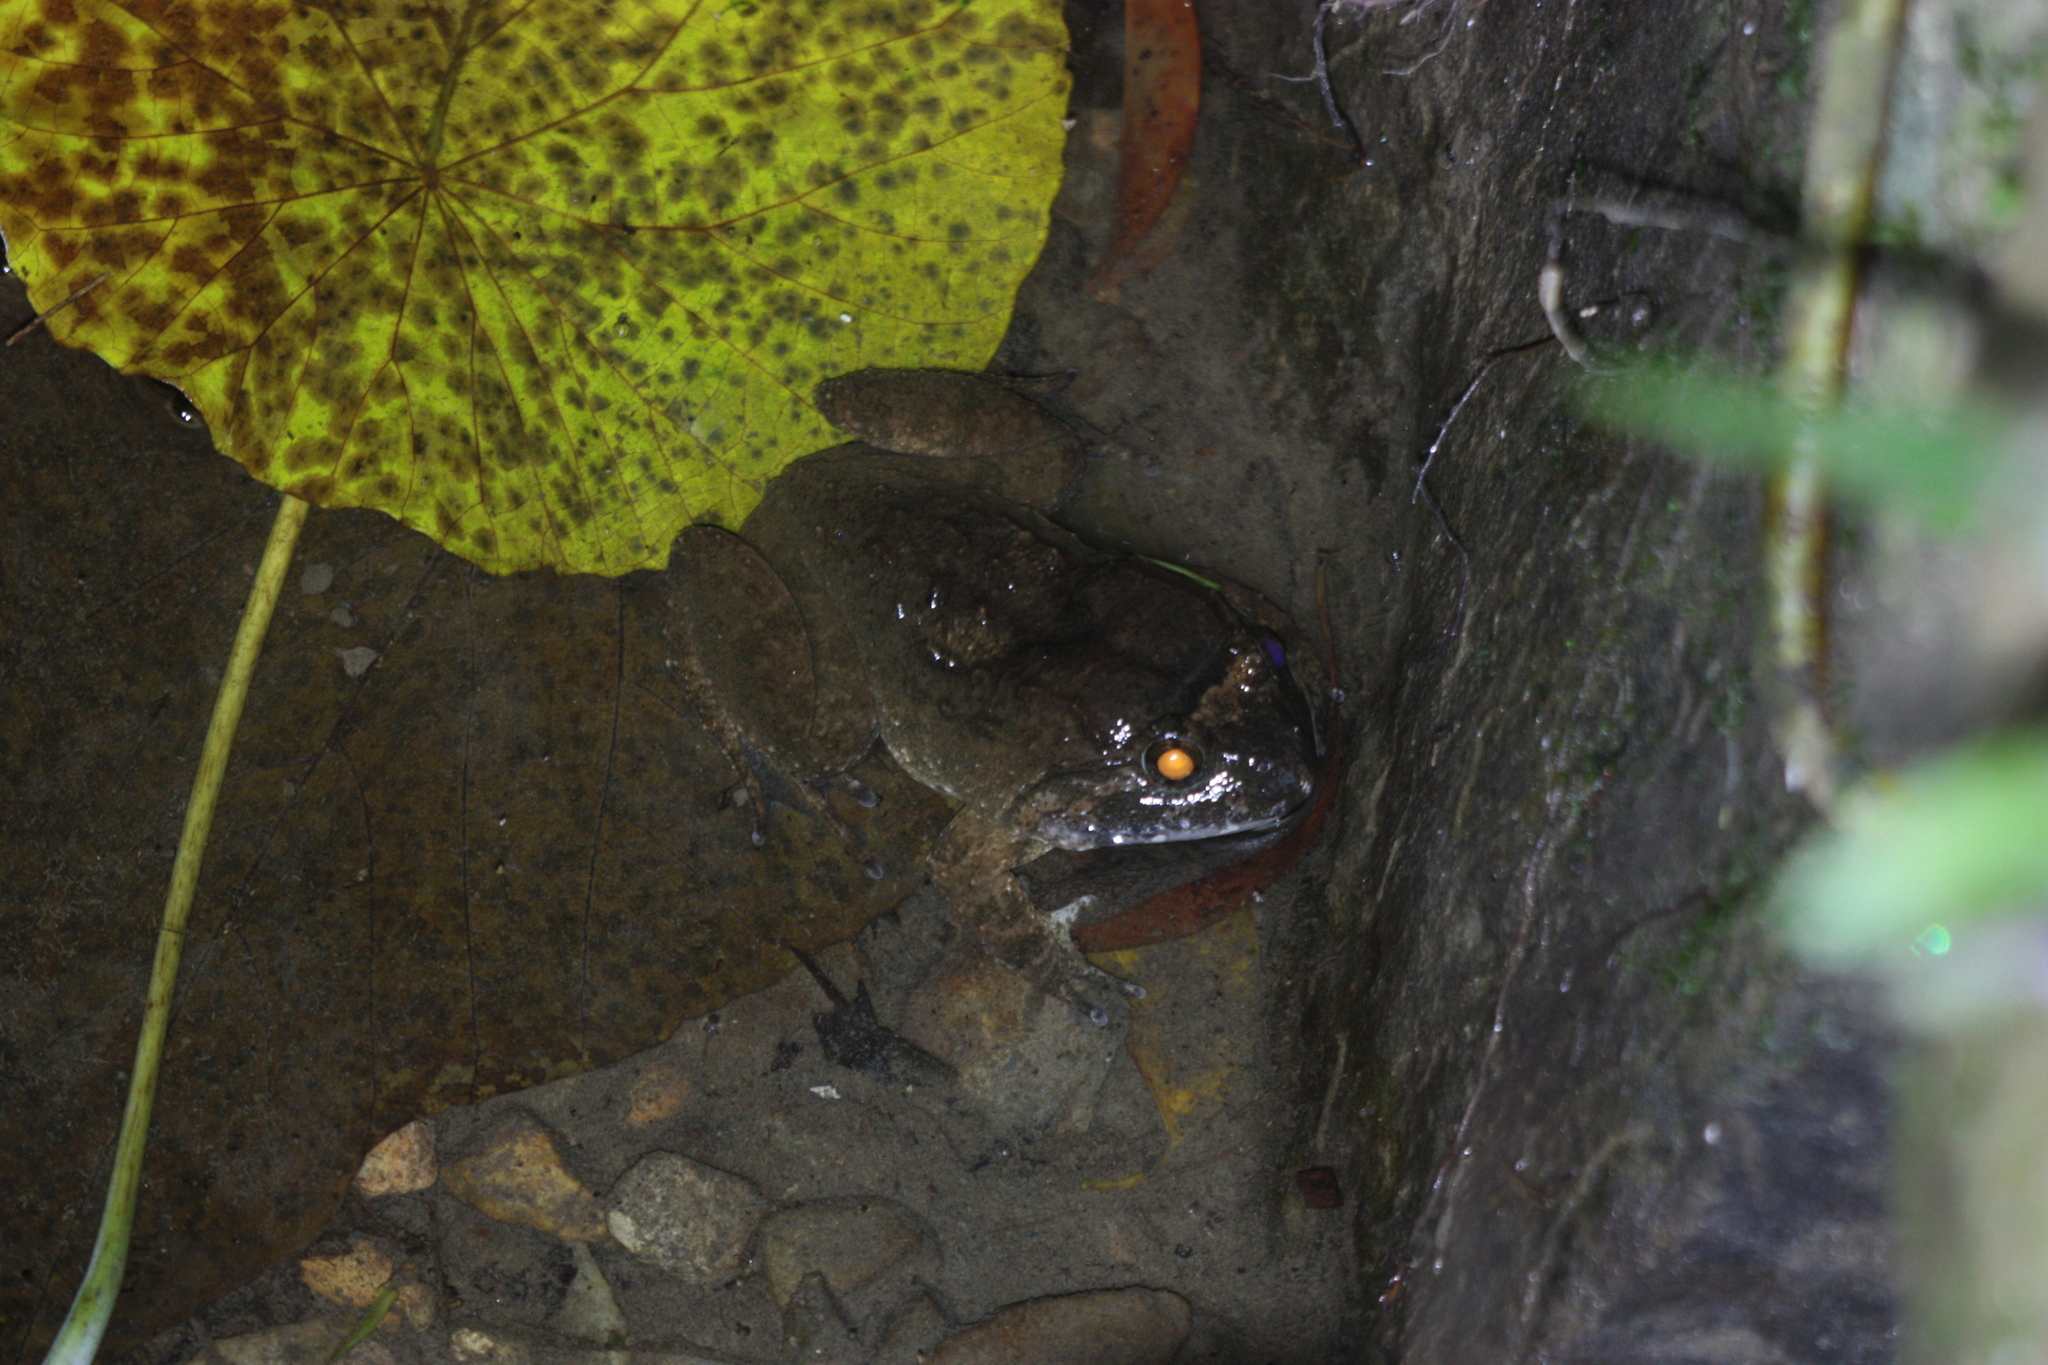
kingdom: Animalia
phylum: Chordata
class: Amphibia
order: Anura
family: Dicroglossidae
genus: Limnonectes
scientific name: Limnonectes fujianensis
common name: Fujian large-headed frog
